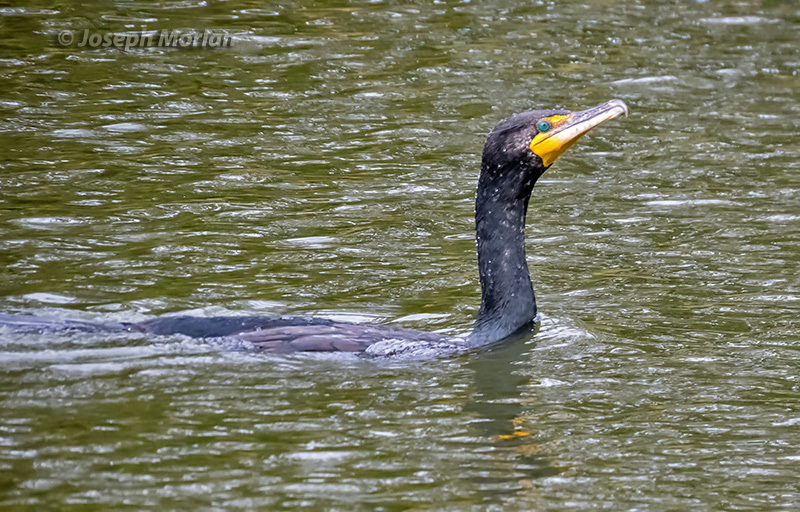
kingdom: Animalia
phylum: Chordata
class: Aves
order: Suliformes
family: Phalacrocoracidae
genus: Phalacrocorax
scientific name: Phalacrocorax auritus
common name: Double-crested cormorant
